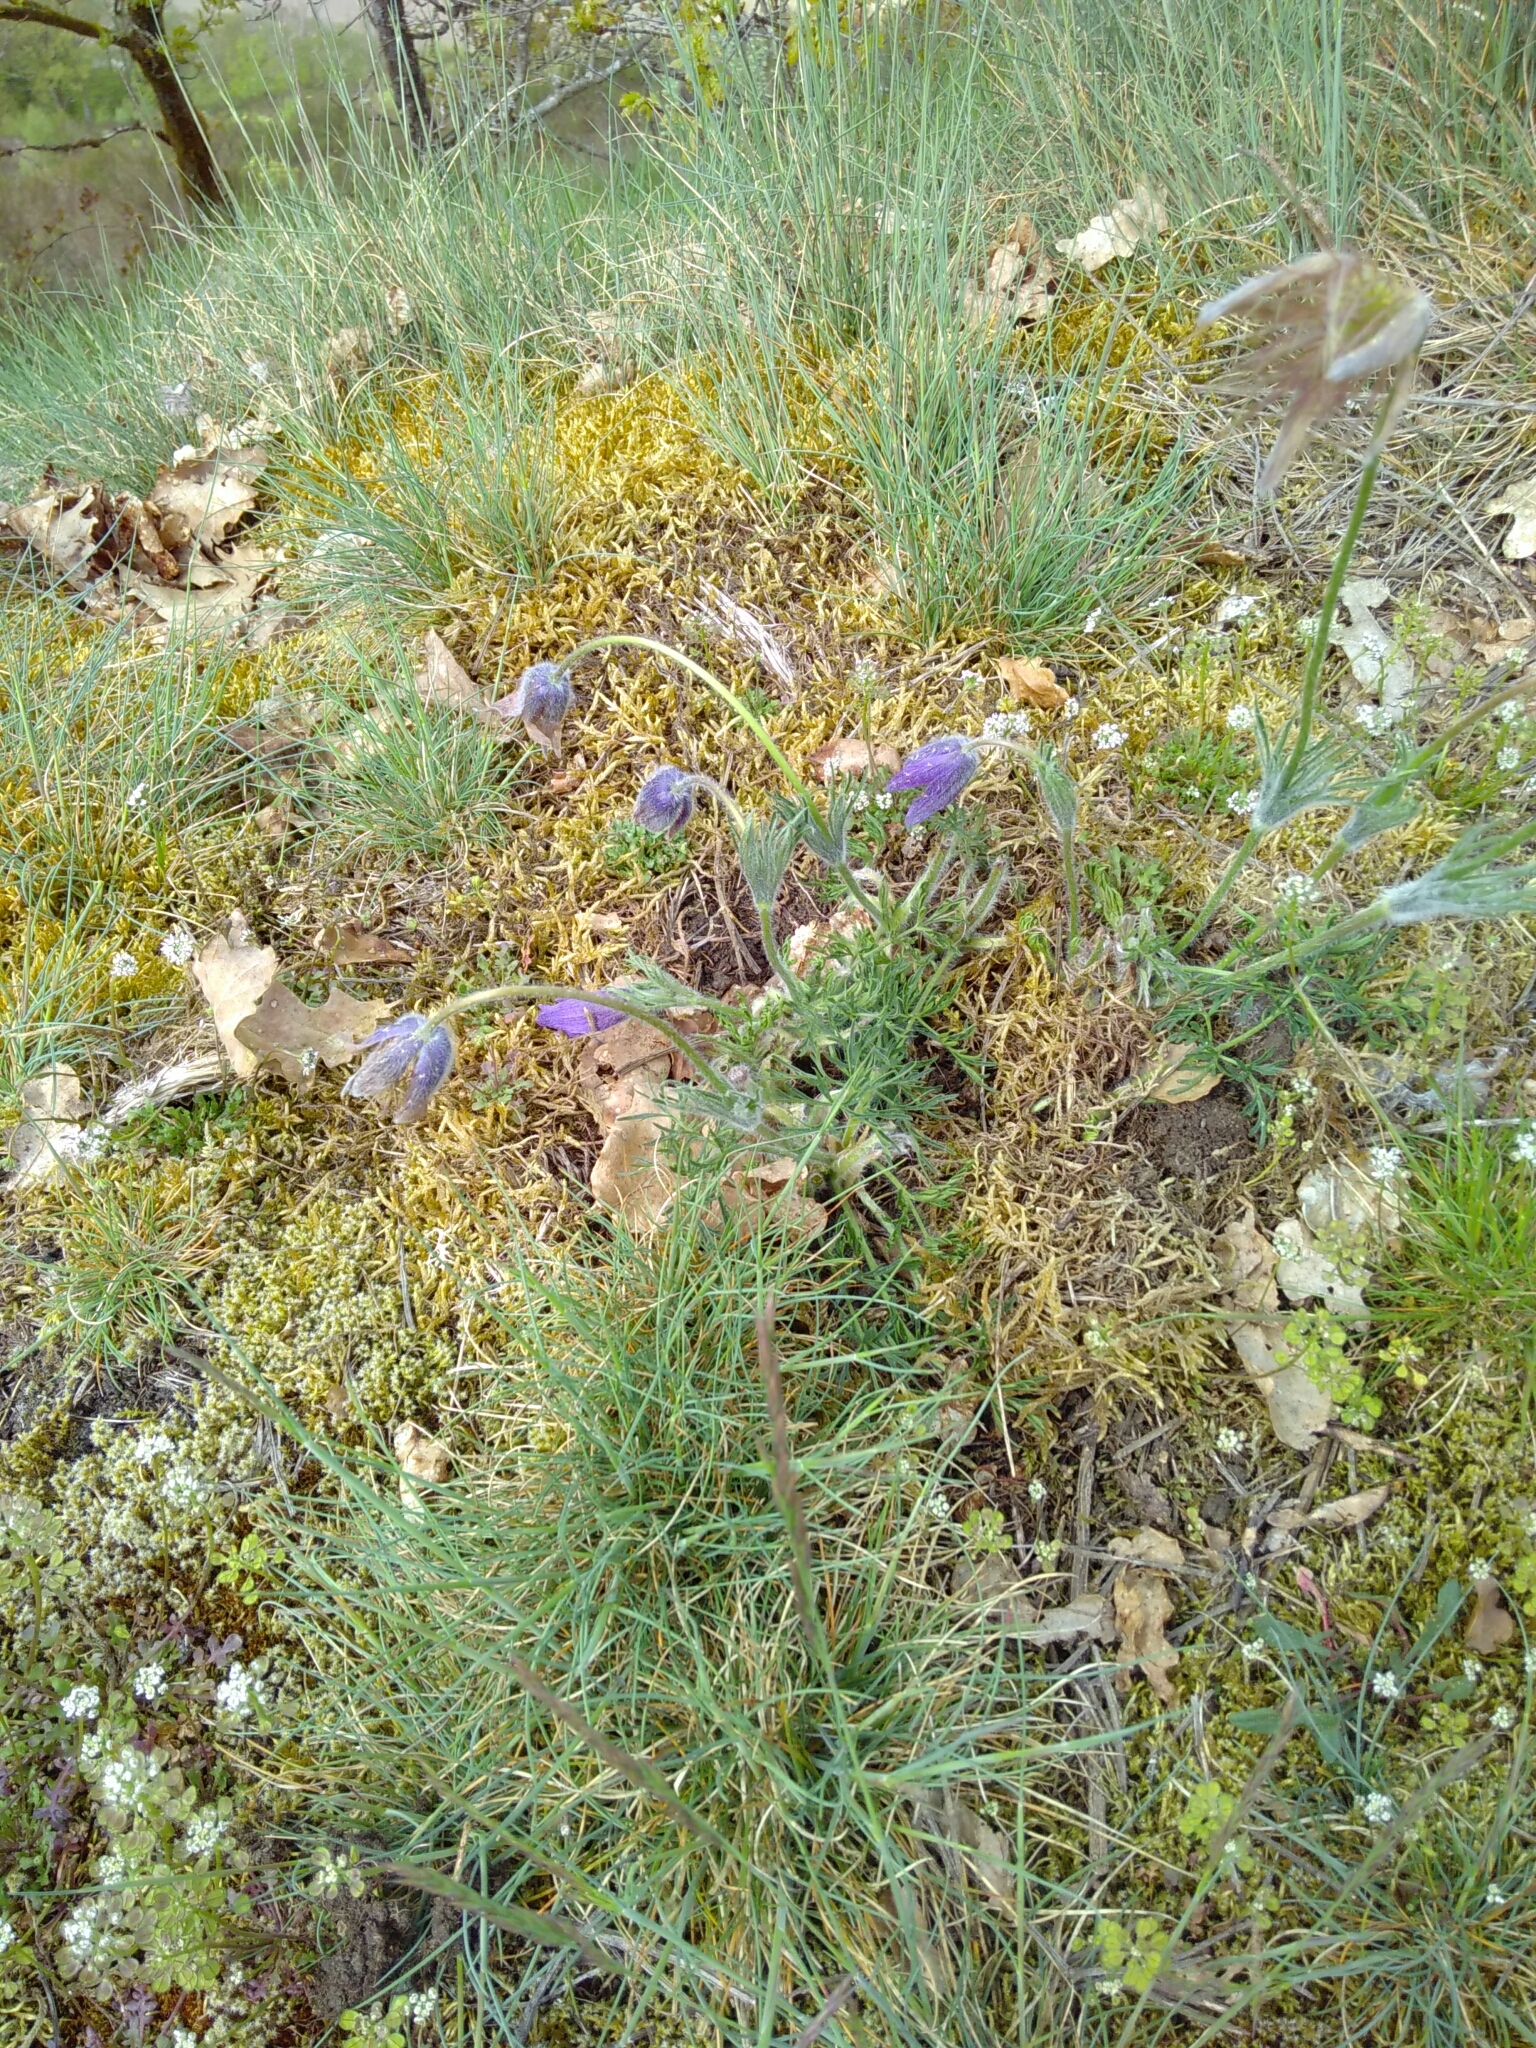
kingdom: Plantae
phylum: Tracheophyta
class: Magnoliopsida
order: Ranunculales
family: Ranunculaceae
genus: Pulsatilla
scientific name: Pulsatilla vulgaris
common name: Pasqueflower
